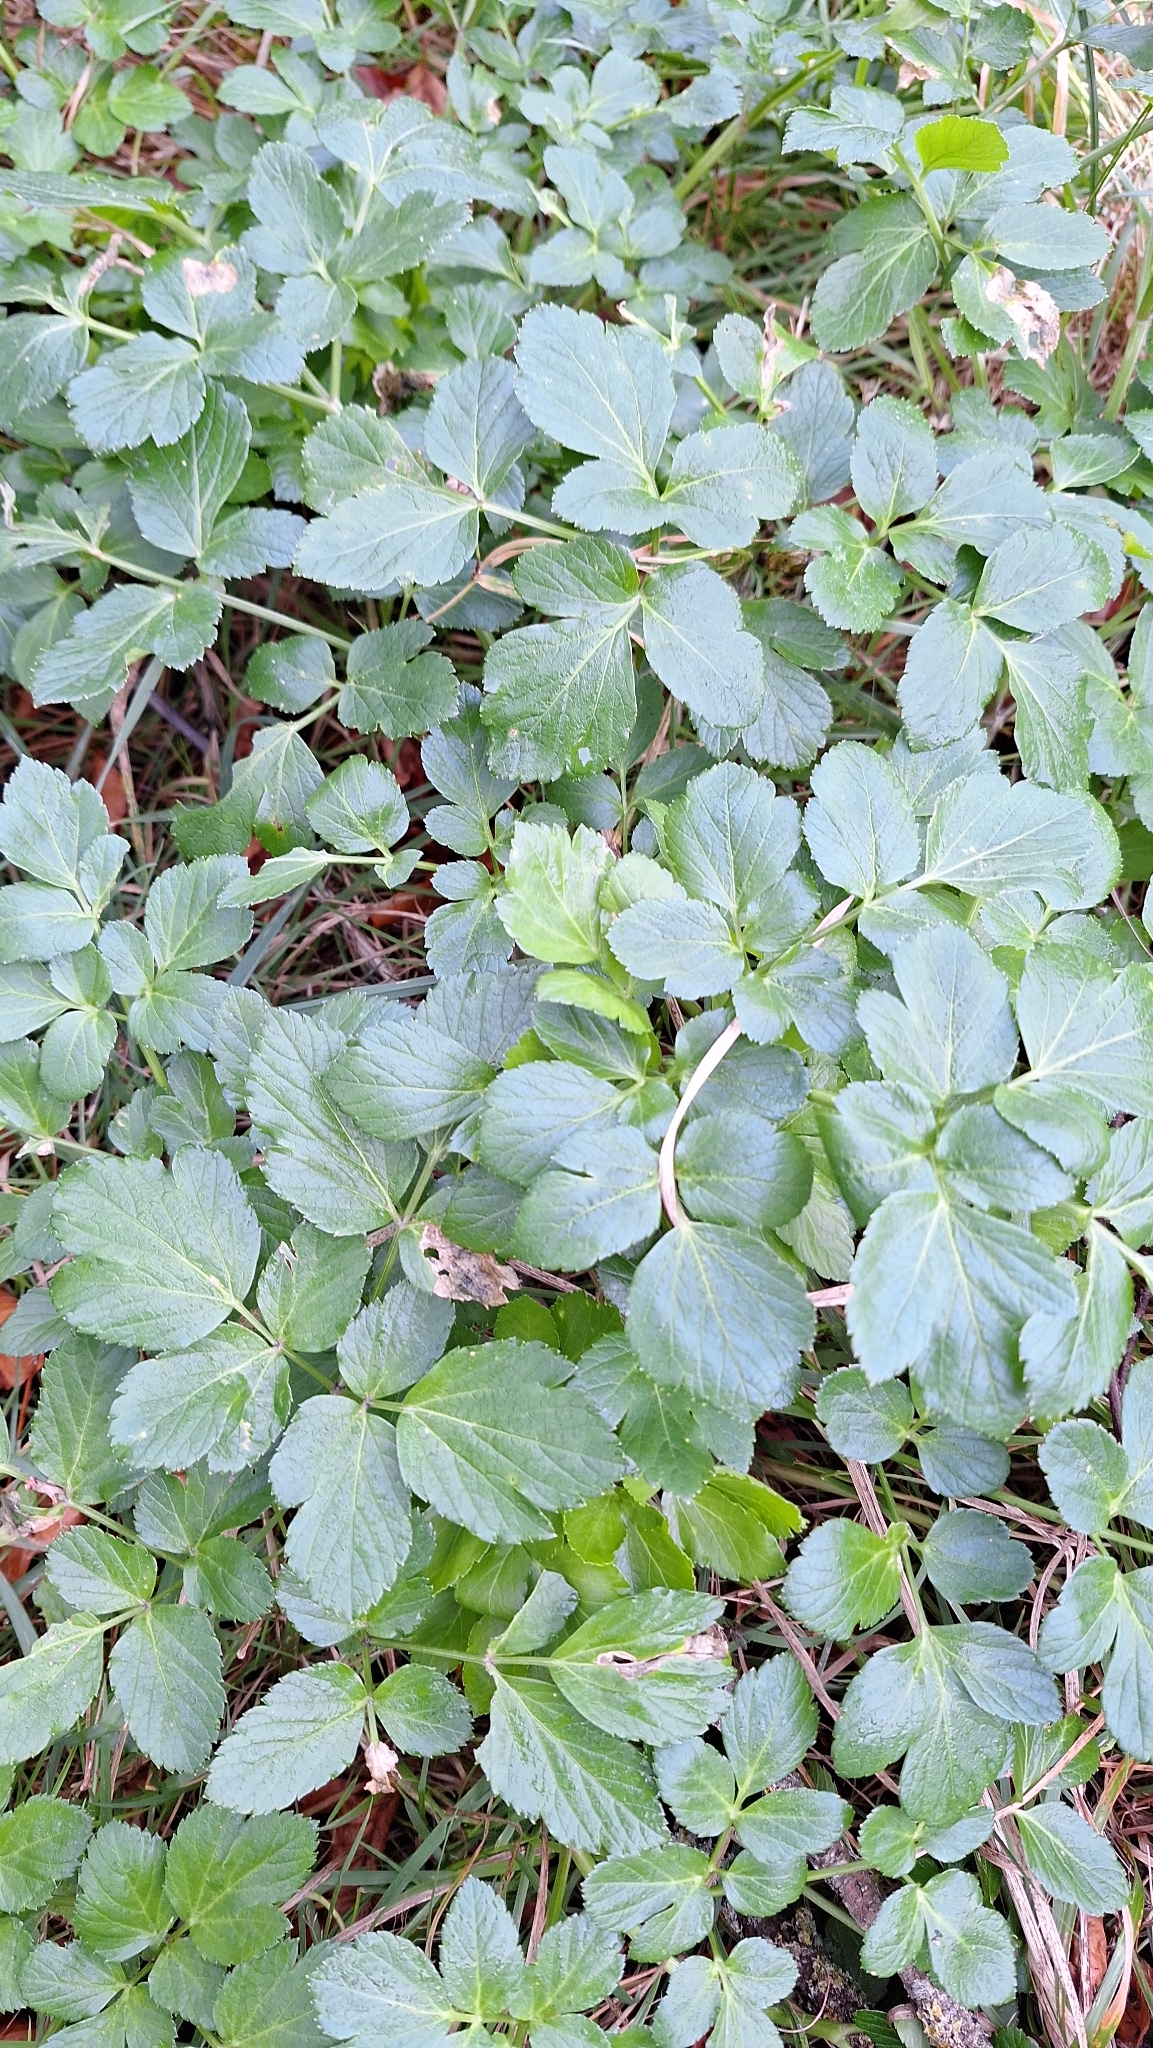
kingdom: Plantae
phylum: Tracheophyta
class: Magnoliopsida
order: Apiales
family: Apiaceae
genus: Smyrnium
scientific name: Smyrnium olusatrum
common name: Alexanders
